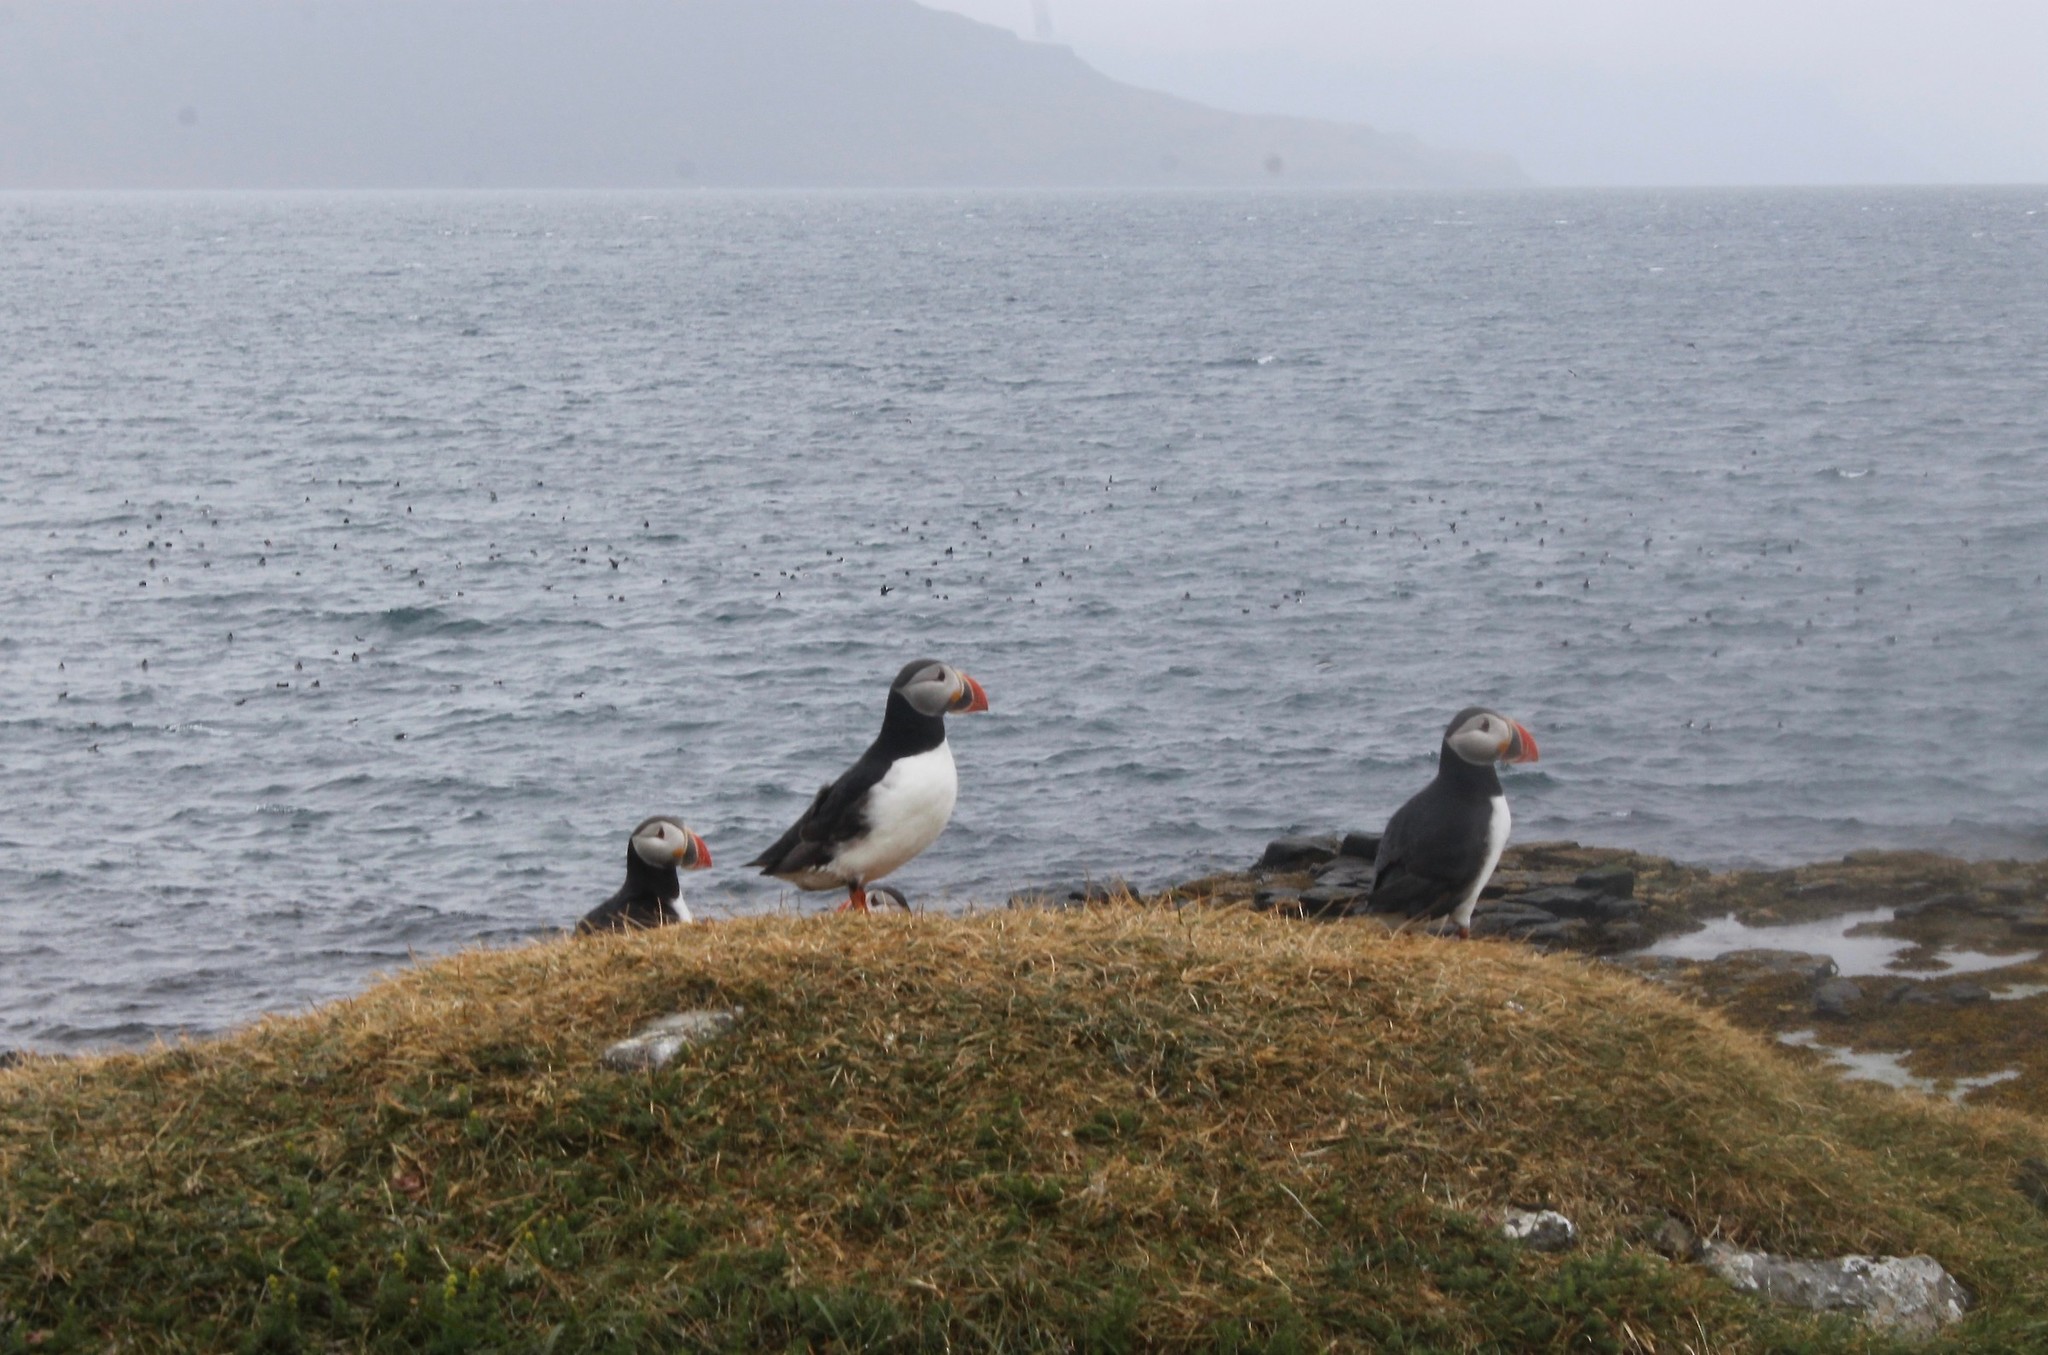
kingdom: Animalia
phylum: Chordata
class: Aves
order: Charadriiformes
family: Alcidae
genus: Fratercula
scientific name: Fratercula arctica
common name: Atlantic puffin
